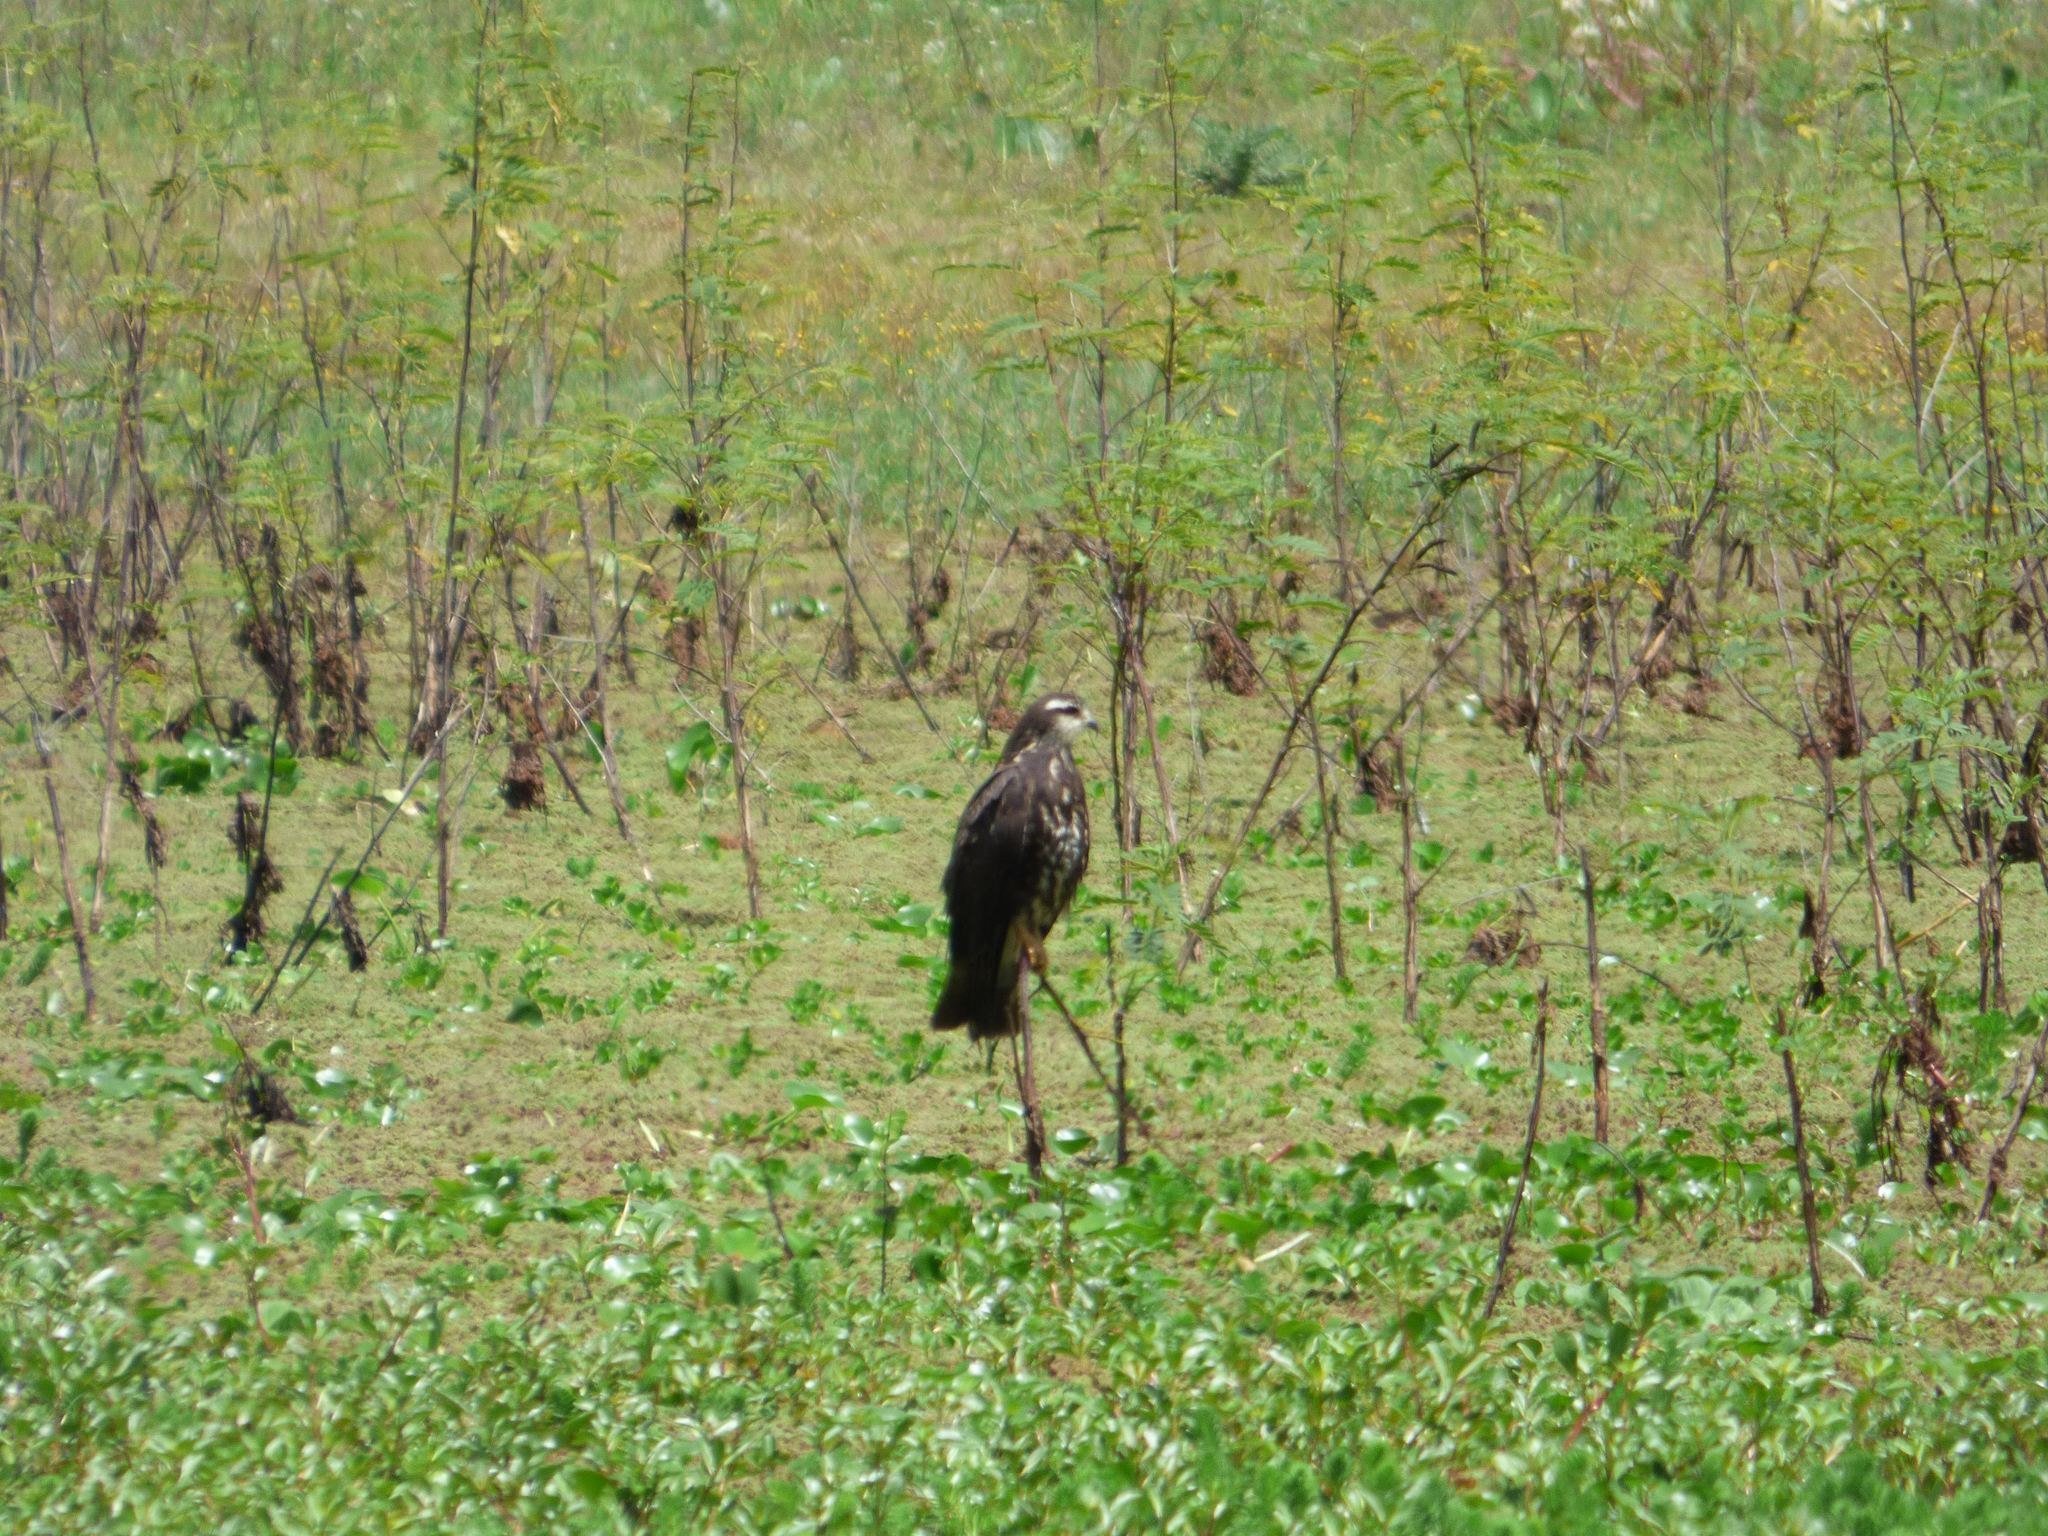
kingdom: Animalia
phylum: Chordata
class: Aves
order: Accipitriformes
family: Accipitridae
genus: Rostrhamus
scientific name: Rostrhamus sociabilis
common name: Snail kite
